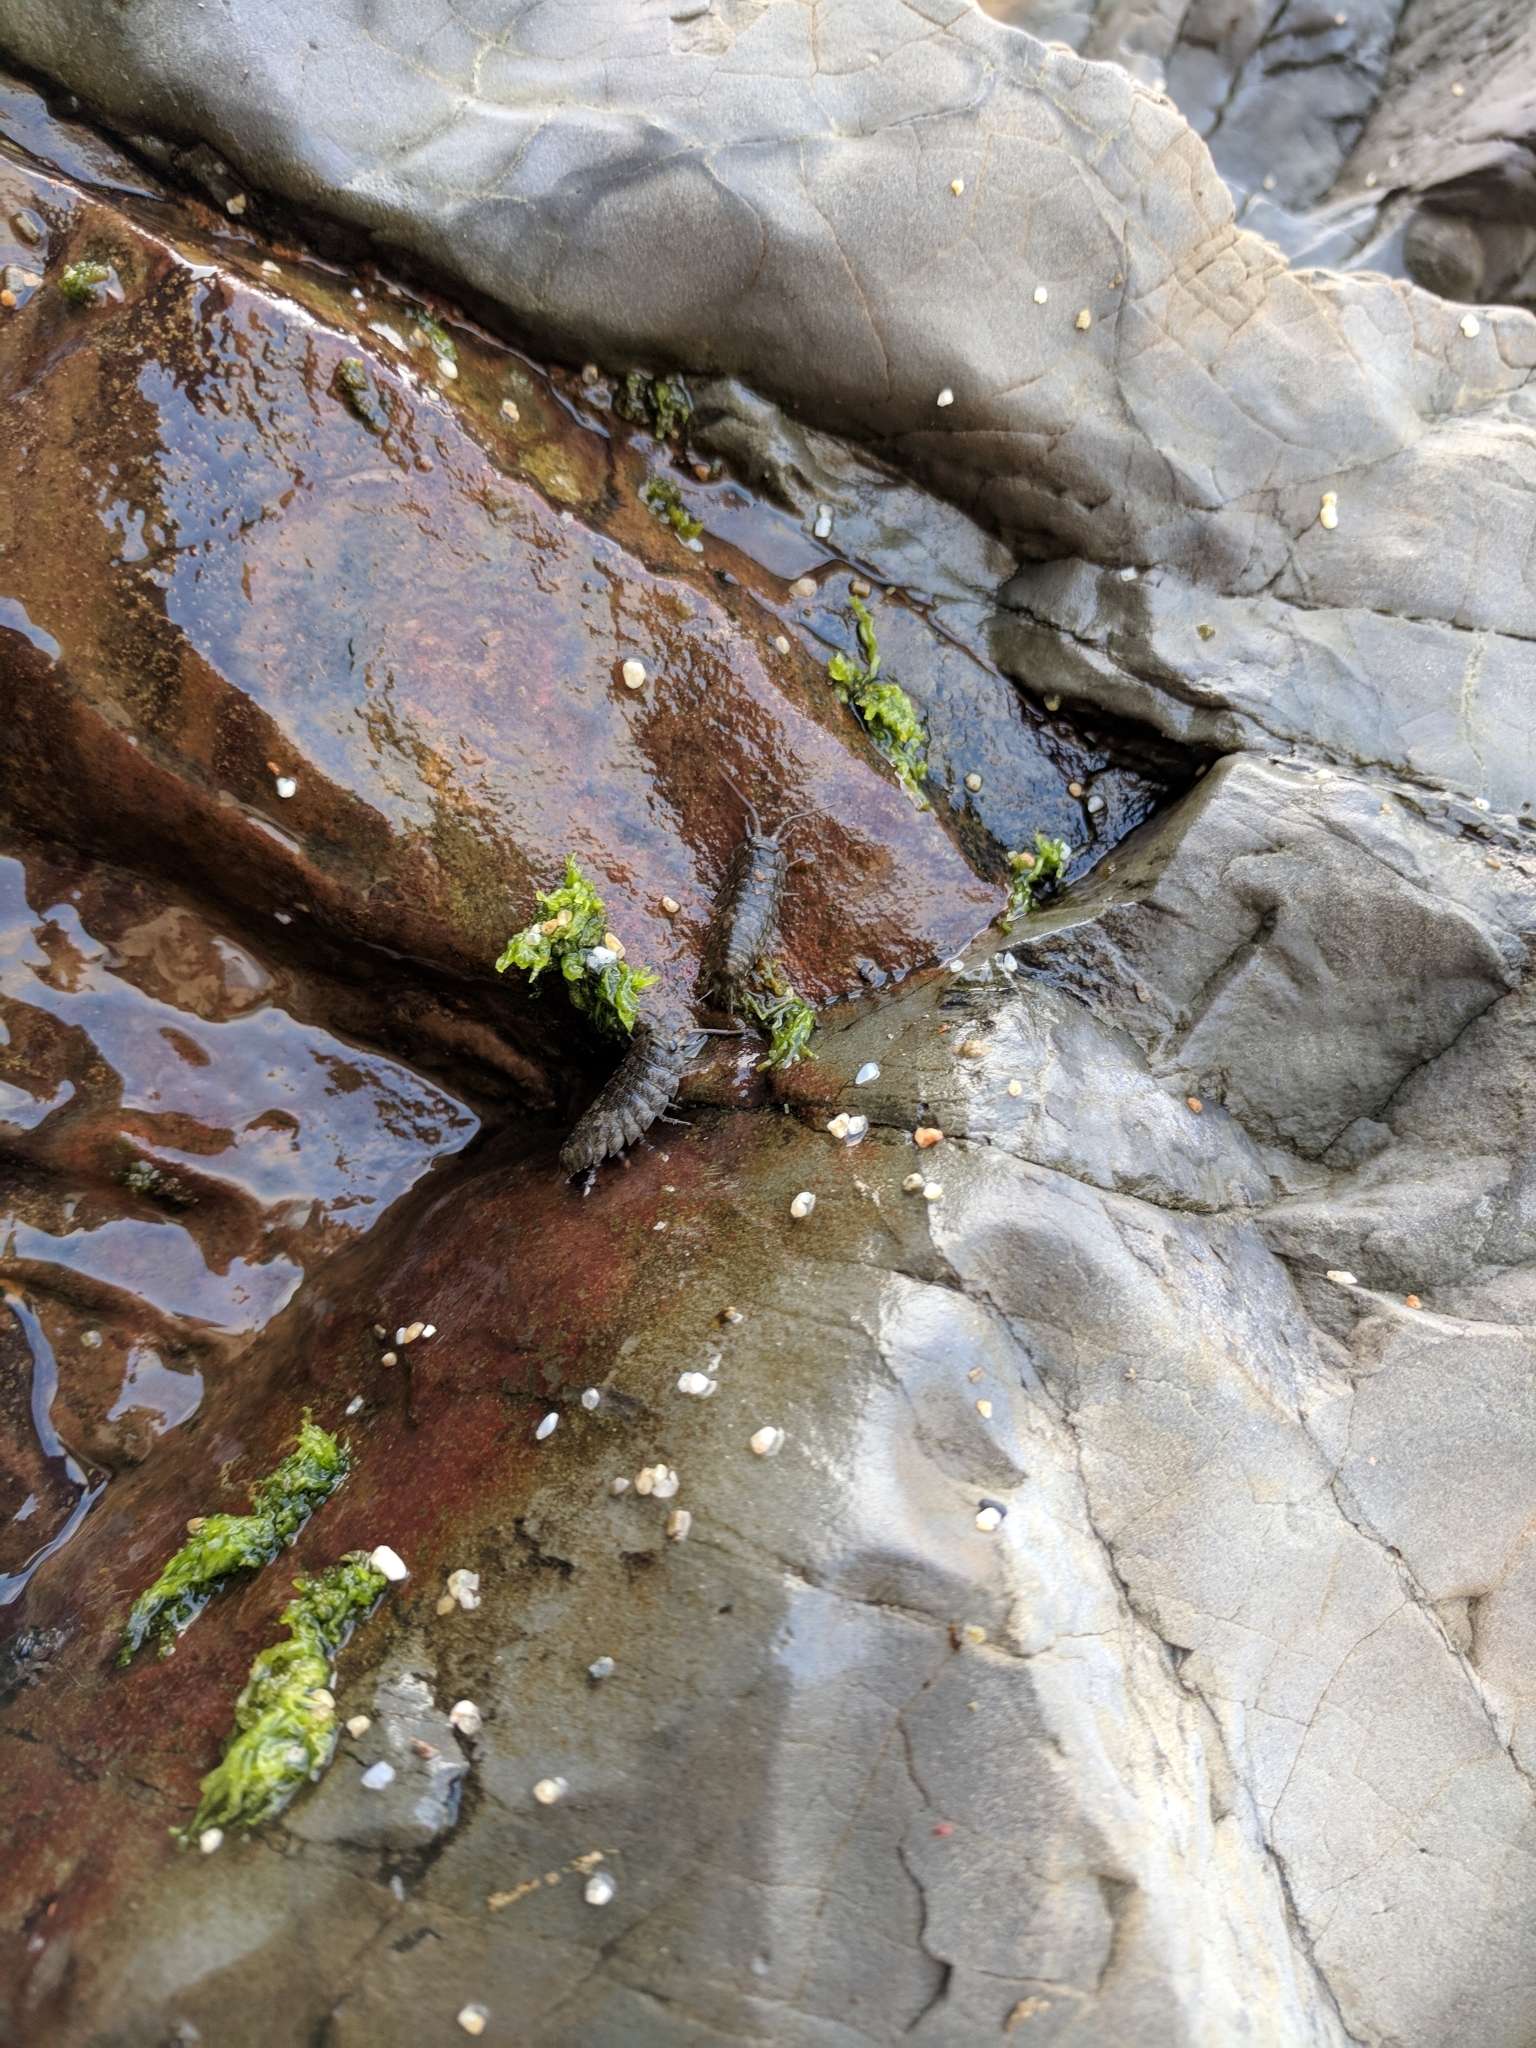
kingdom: Animalia
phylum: Arthropoda
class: Malacostraca
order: Isopoda
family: Ligiidae
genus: Ligia
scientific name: Ligia pallasii
